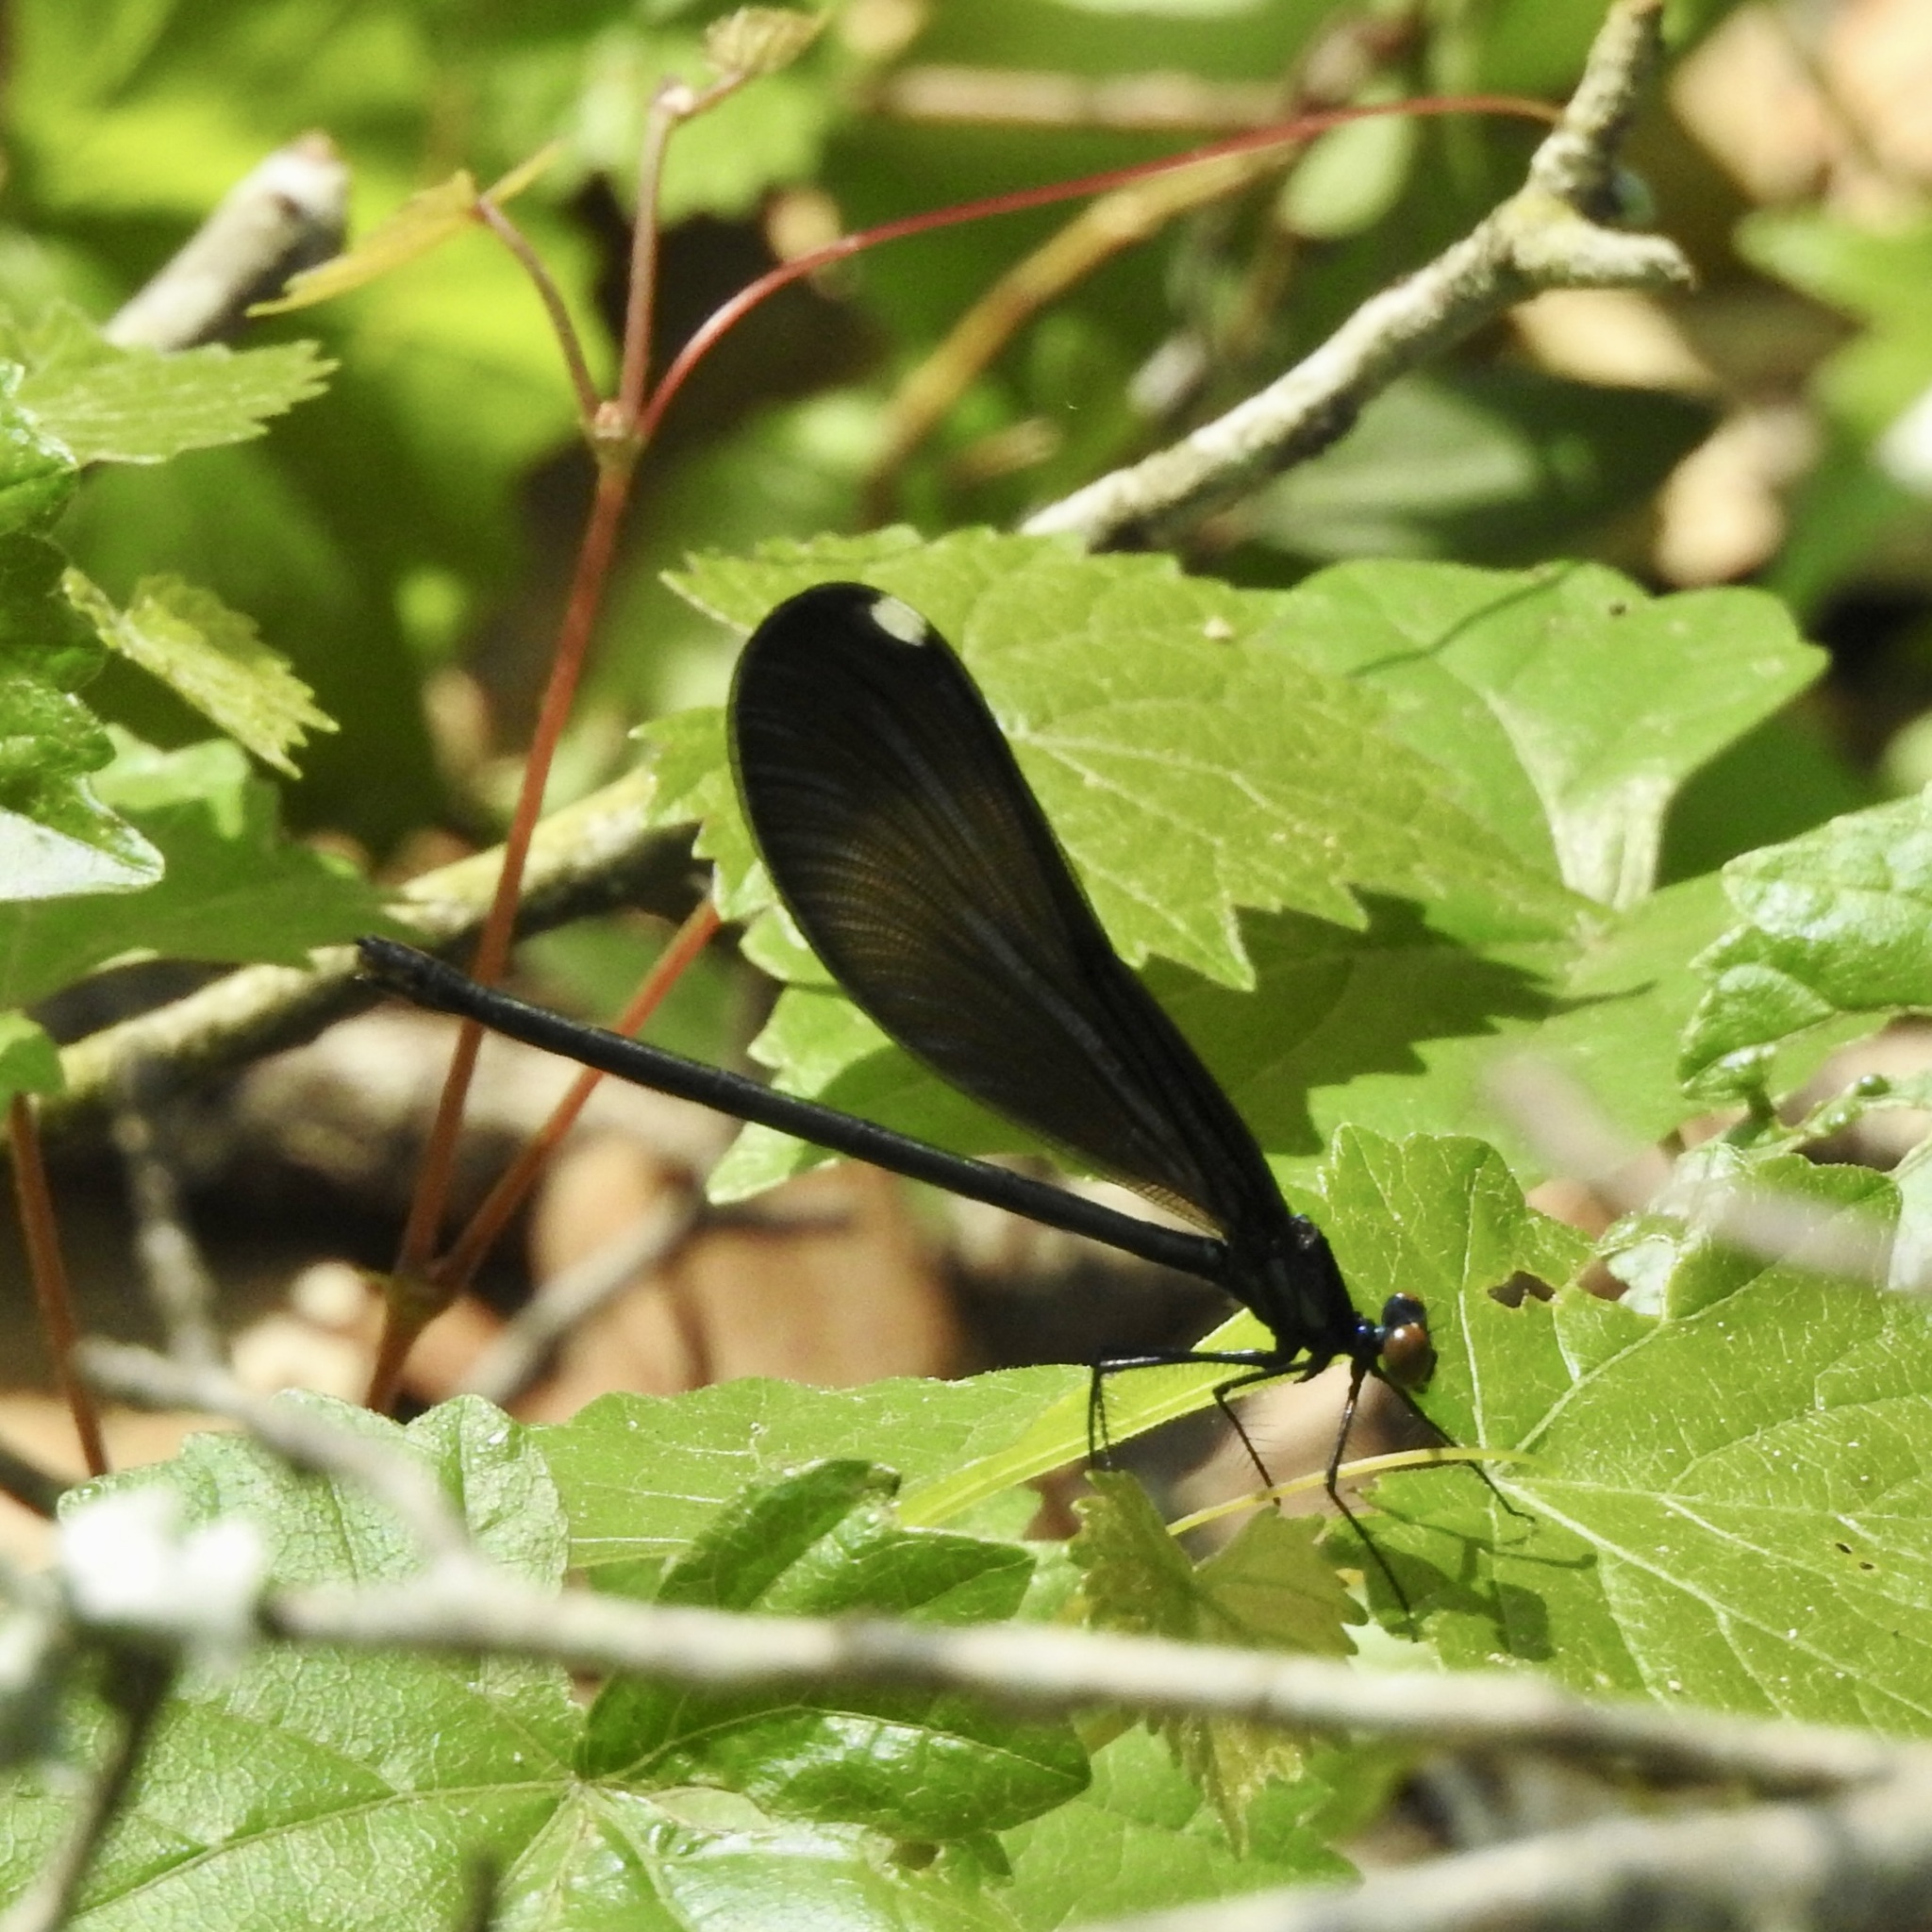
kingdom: Animalia
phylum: Arthropoda
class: Insecta
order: Odonata
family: Calopterygidae
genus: Calopteryx
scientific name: Calopteryx maculata
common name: Ebony jewelwing
